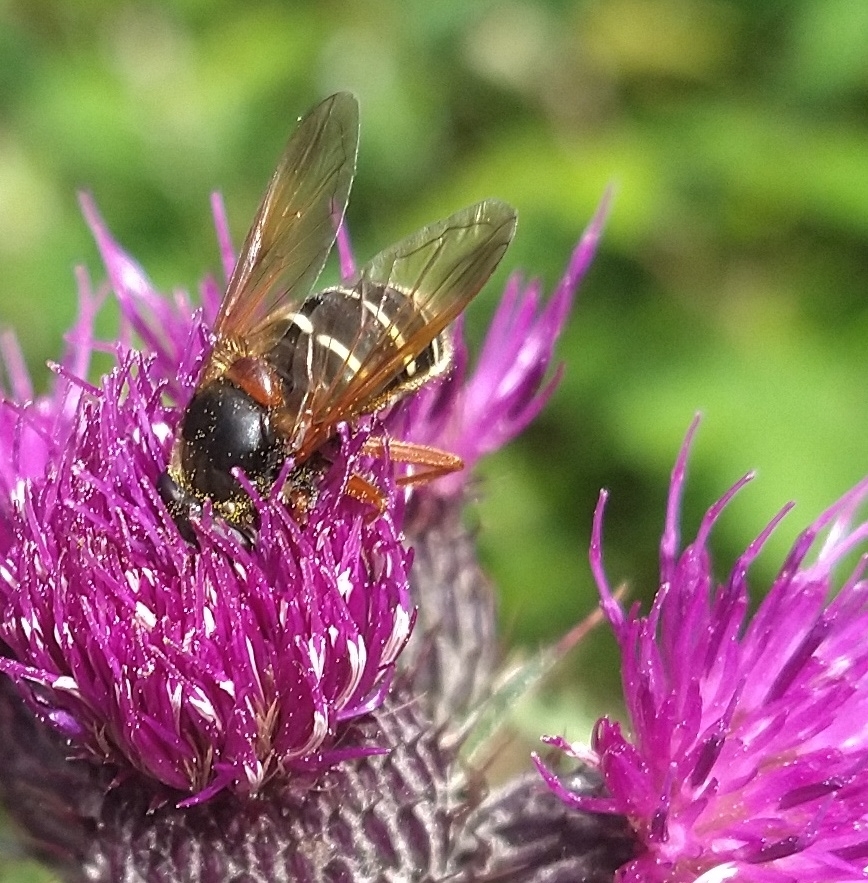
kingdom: Animalia
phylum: Arthropoda
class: Insecta
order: Diptera
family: Syrphidae
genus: Sericomyia
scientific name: Sericomyia lappona
